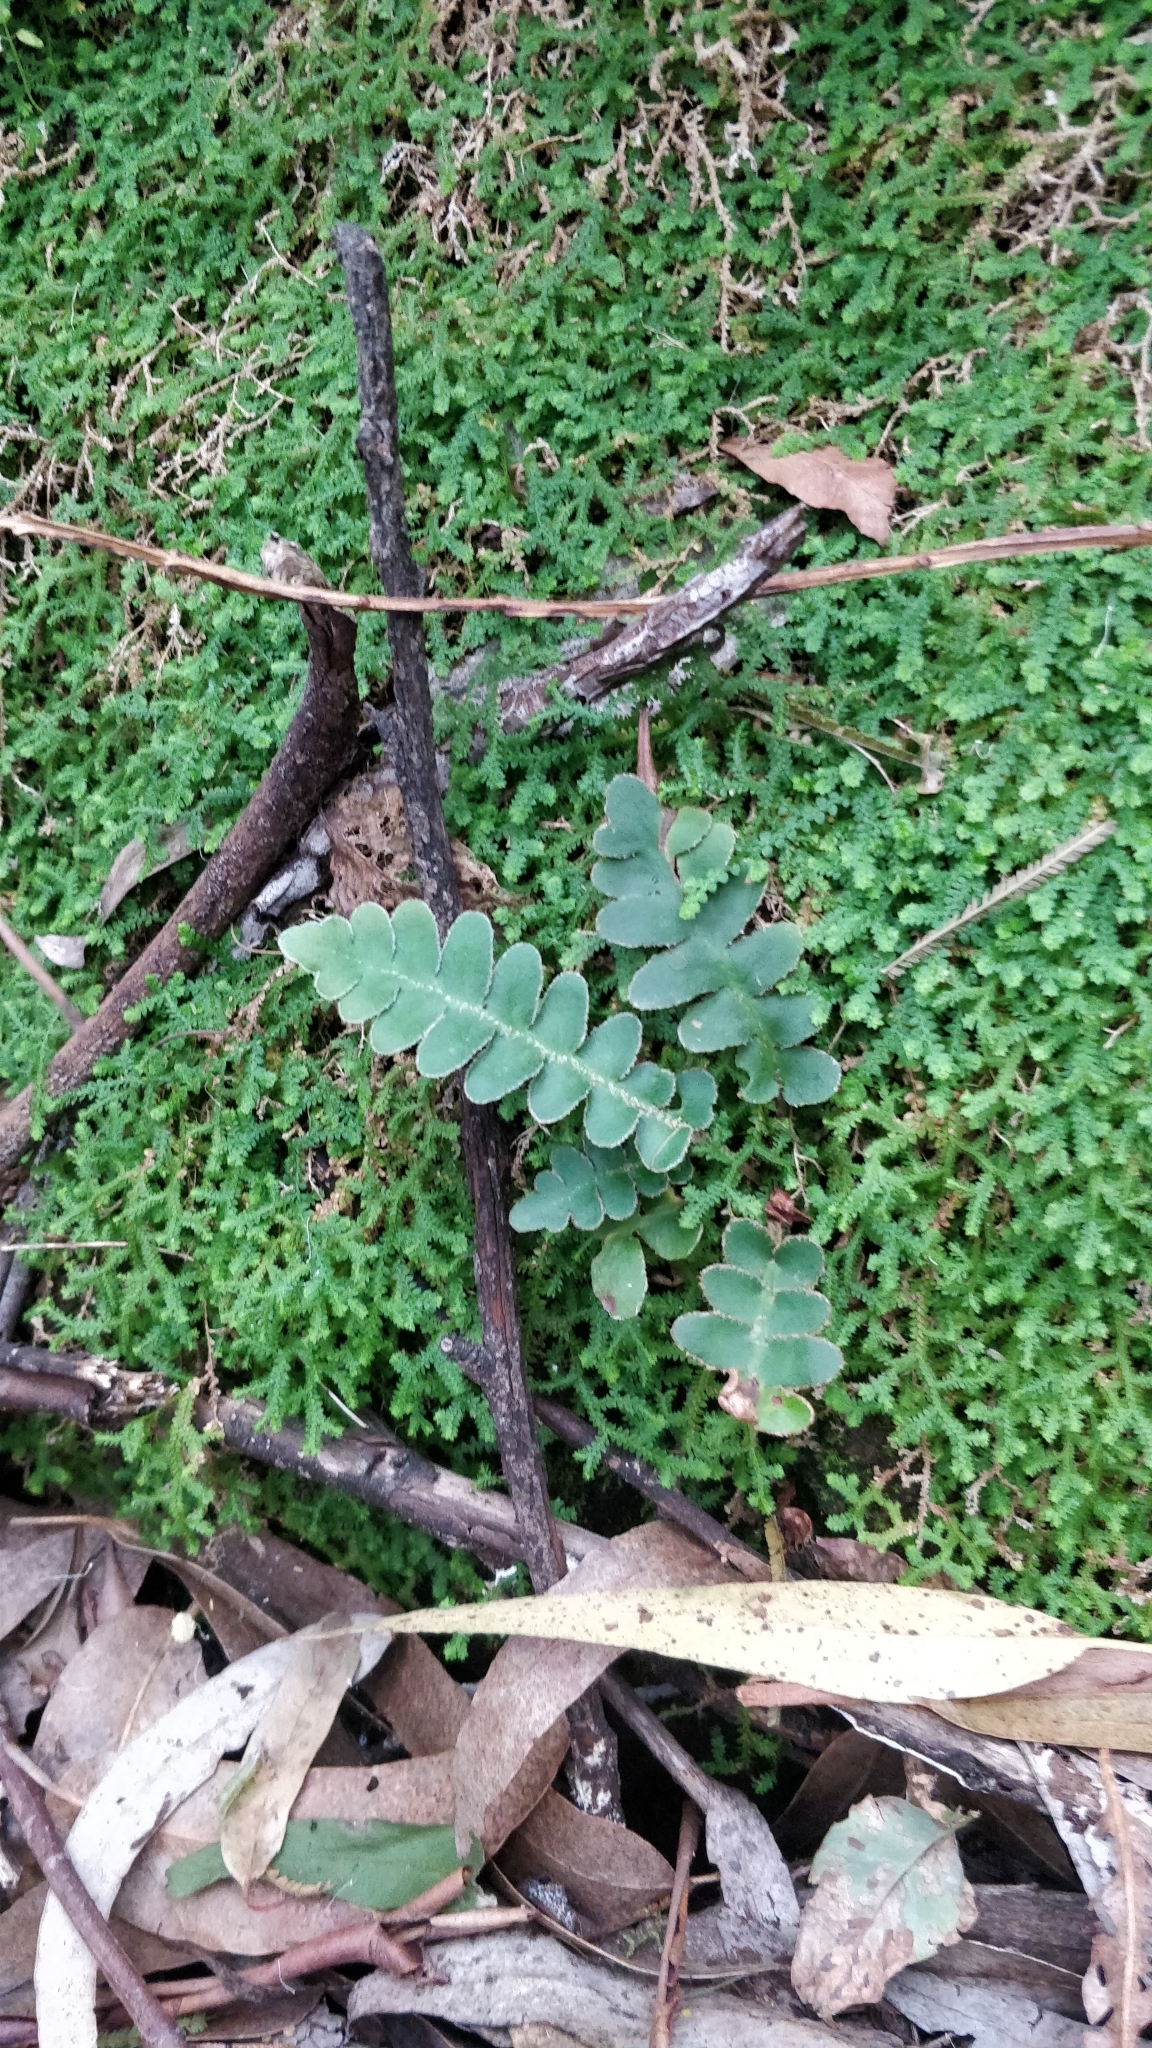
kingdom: Plantae
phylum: Tracheophyta
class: Polypodiopsida
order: Polypodiales
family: Aspleniaceae
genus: Asplenium
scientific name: Asplenium lolegnamense
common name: Madeira rustyback fern
